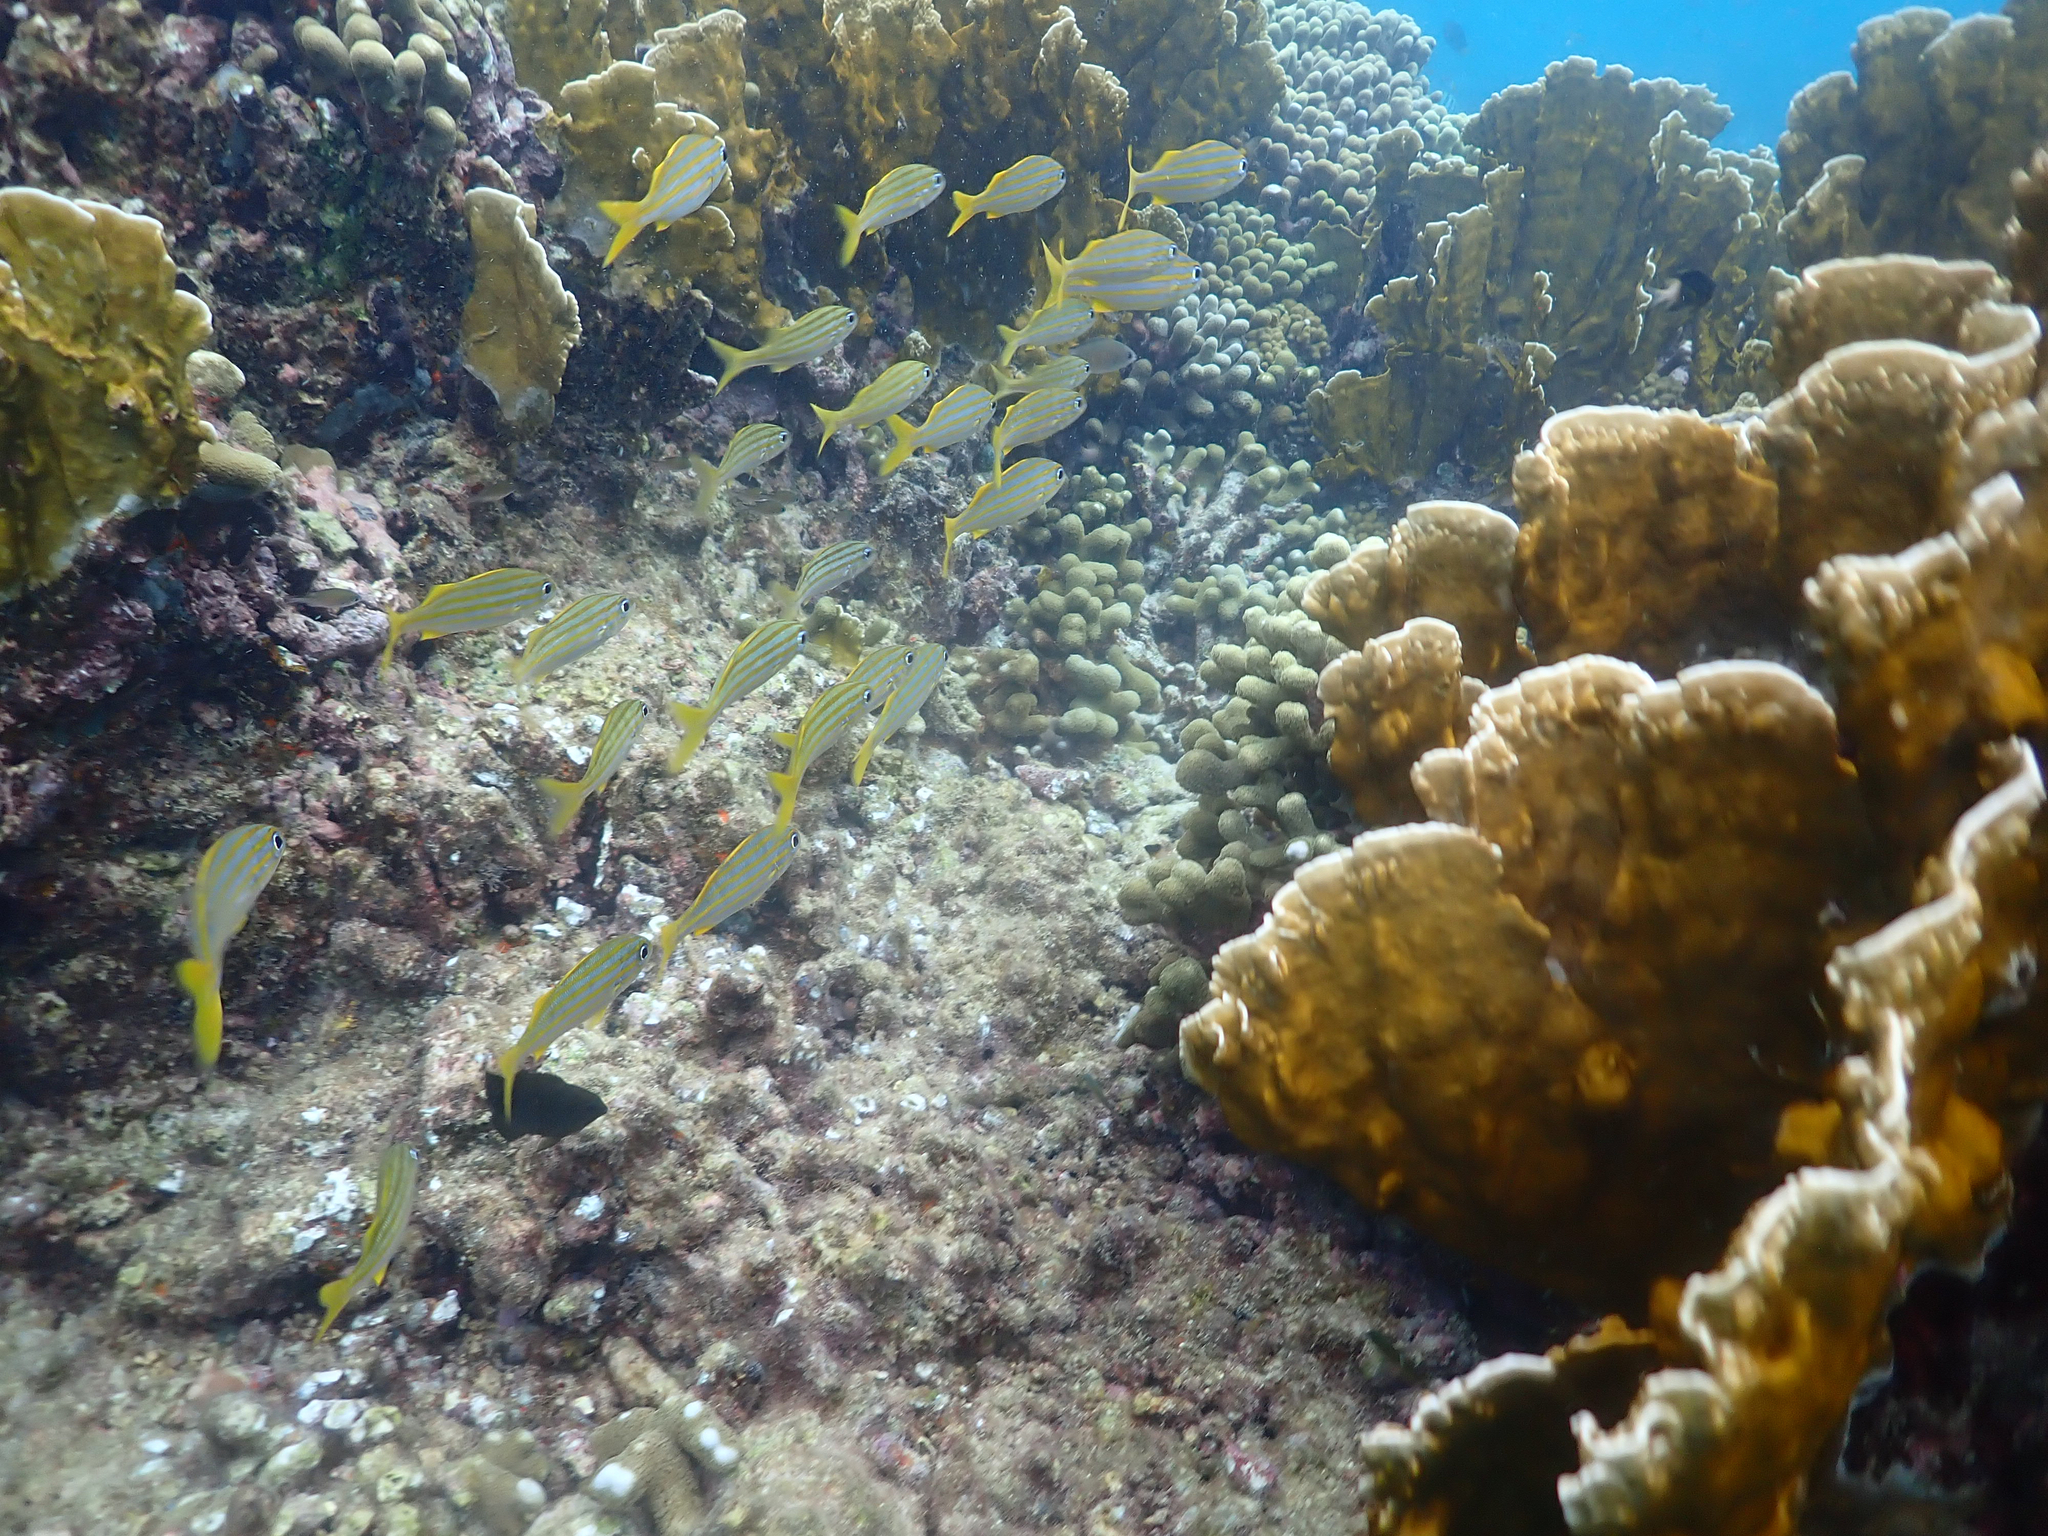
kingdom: Animalia
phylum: Chordata
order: Perciformes
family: Haemulidae
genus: Haemulon
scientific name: Haemulon chrysargyreum
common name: Smallmouth grunt
